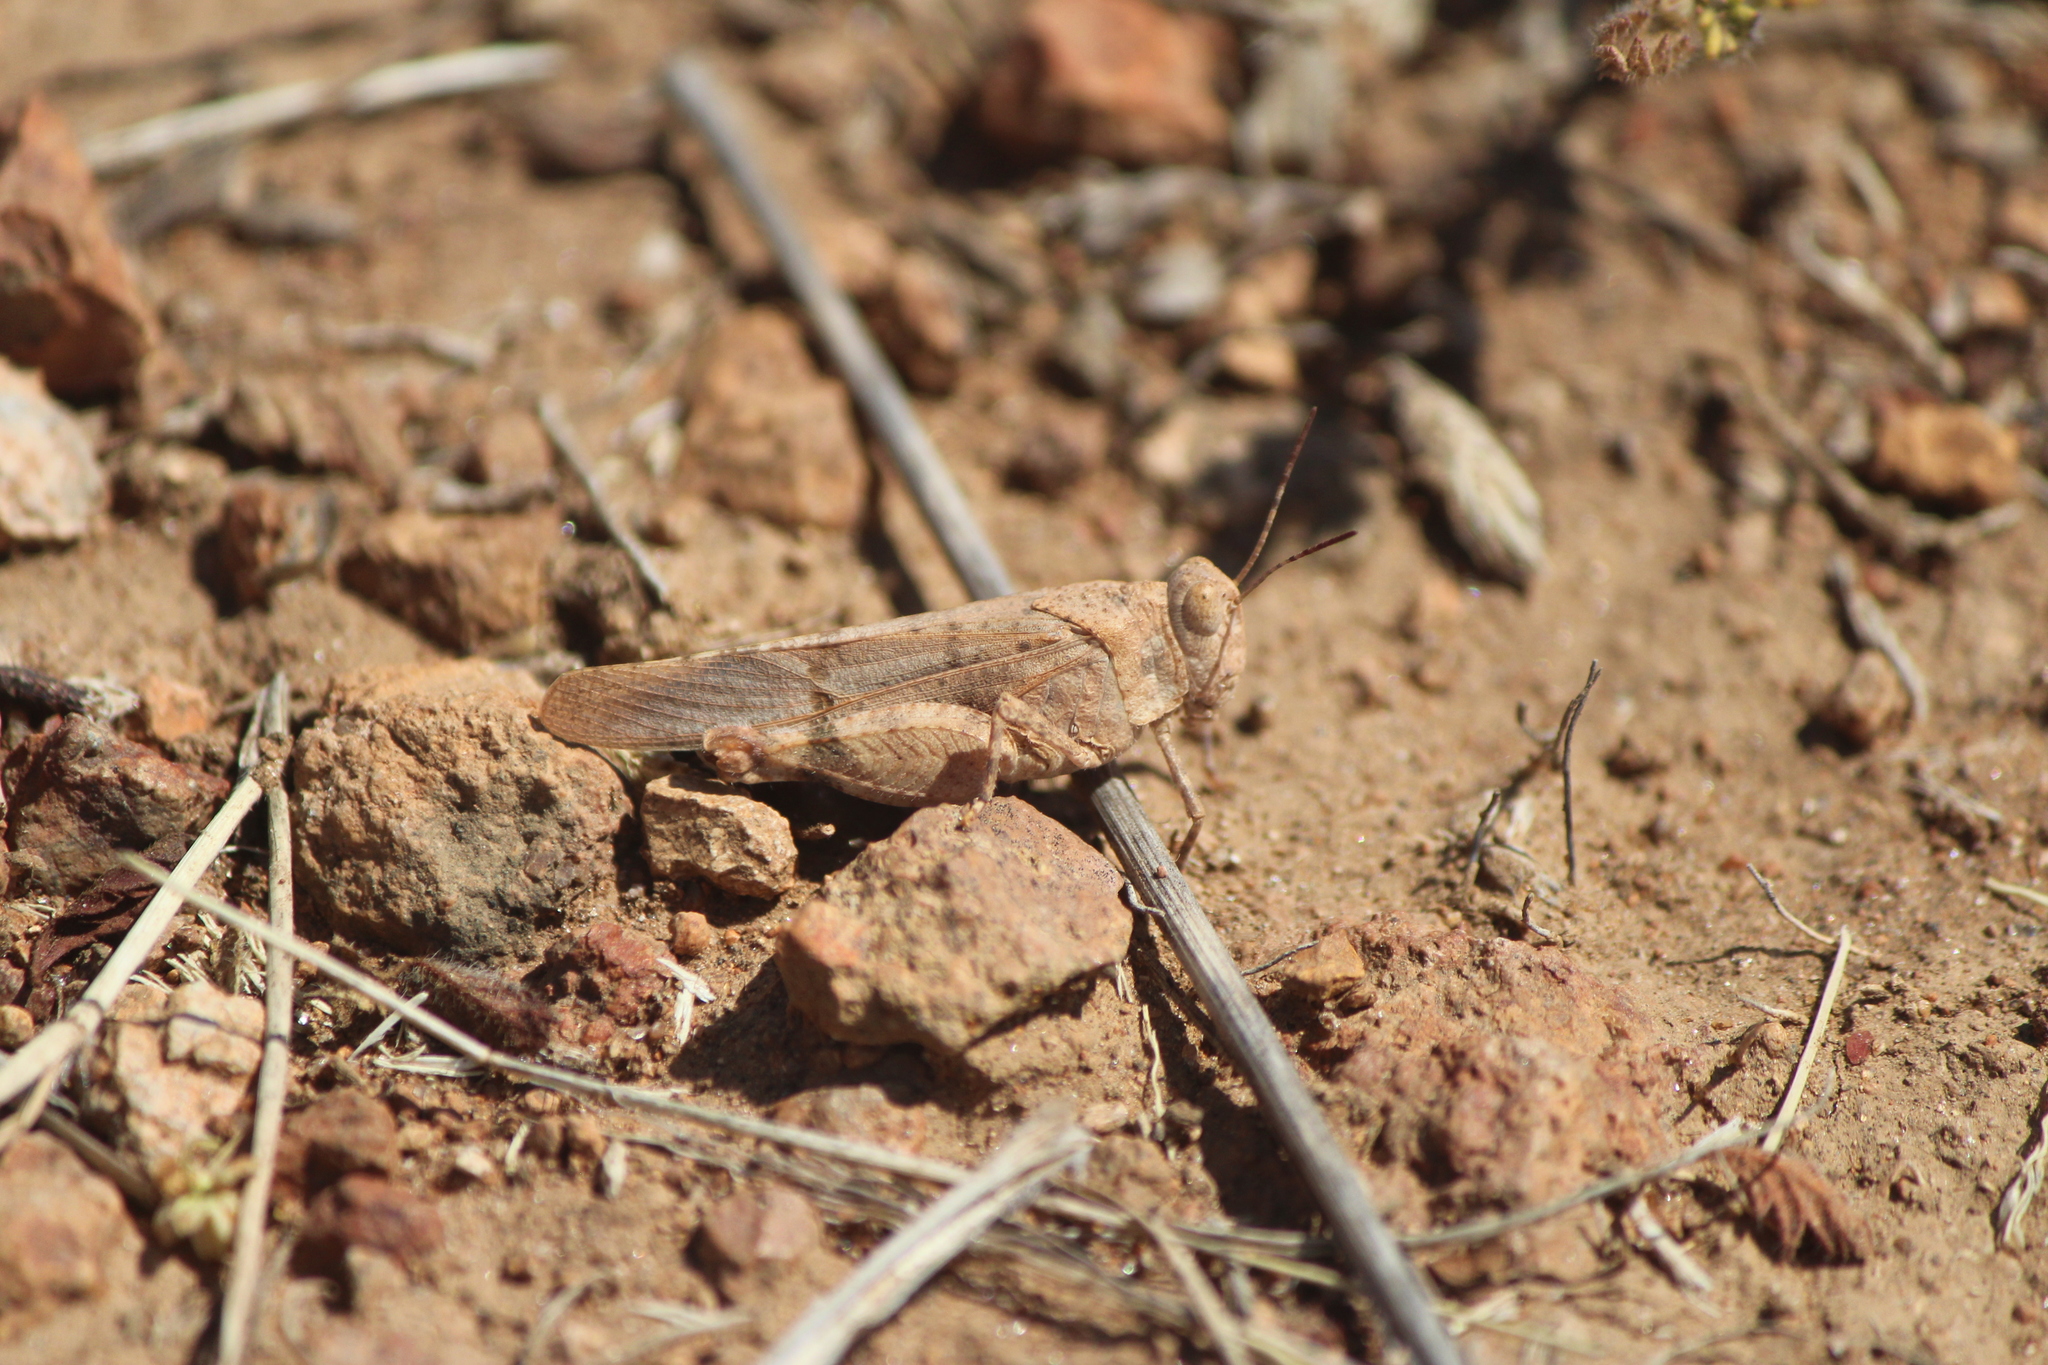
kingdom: Animalia
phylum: Arthropoda
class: Insecta
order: Orthoptera
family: Acrididae
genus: Lactista
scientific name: Lactista azteca
